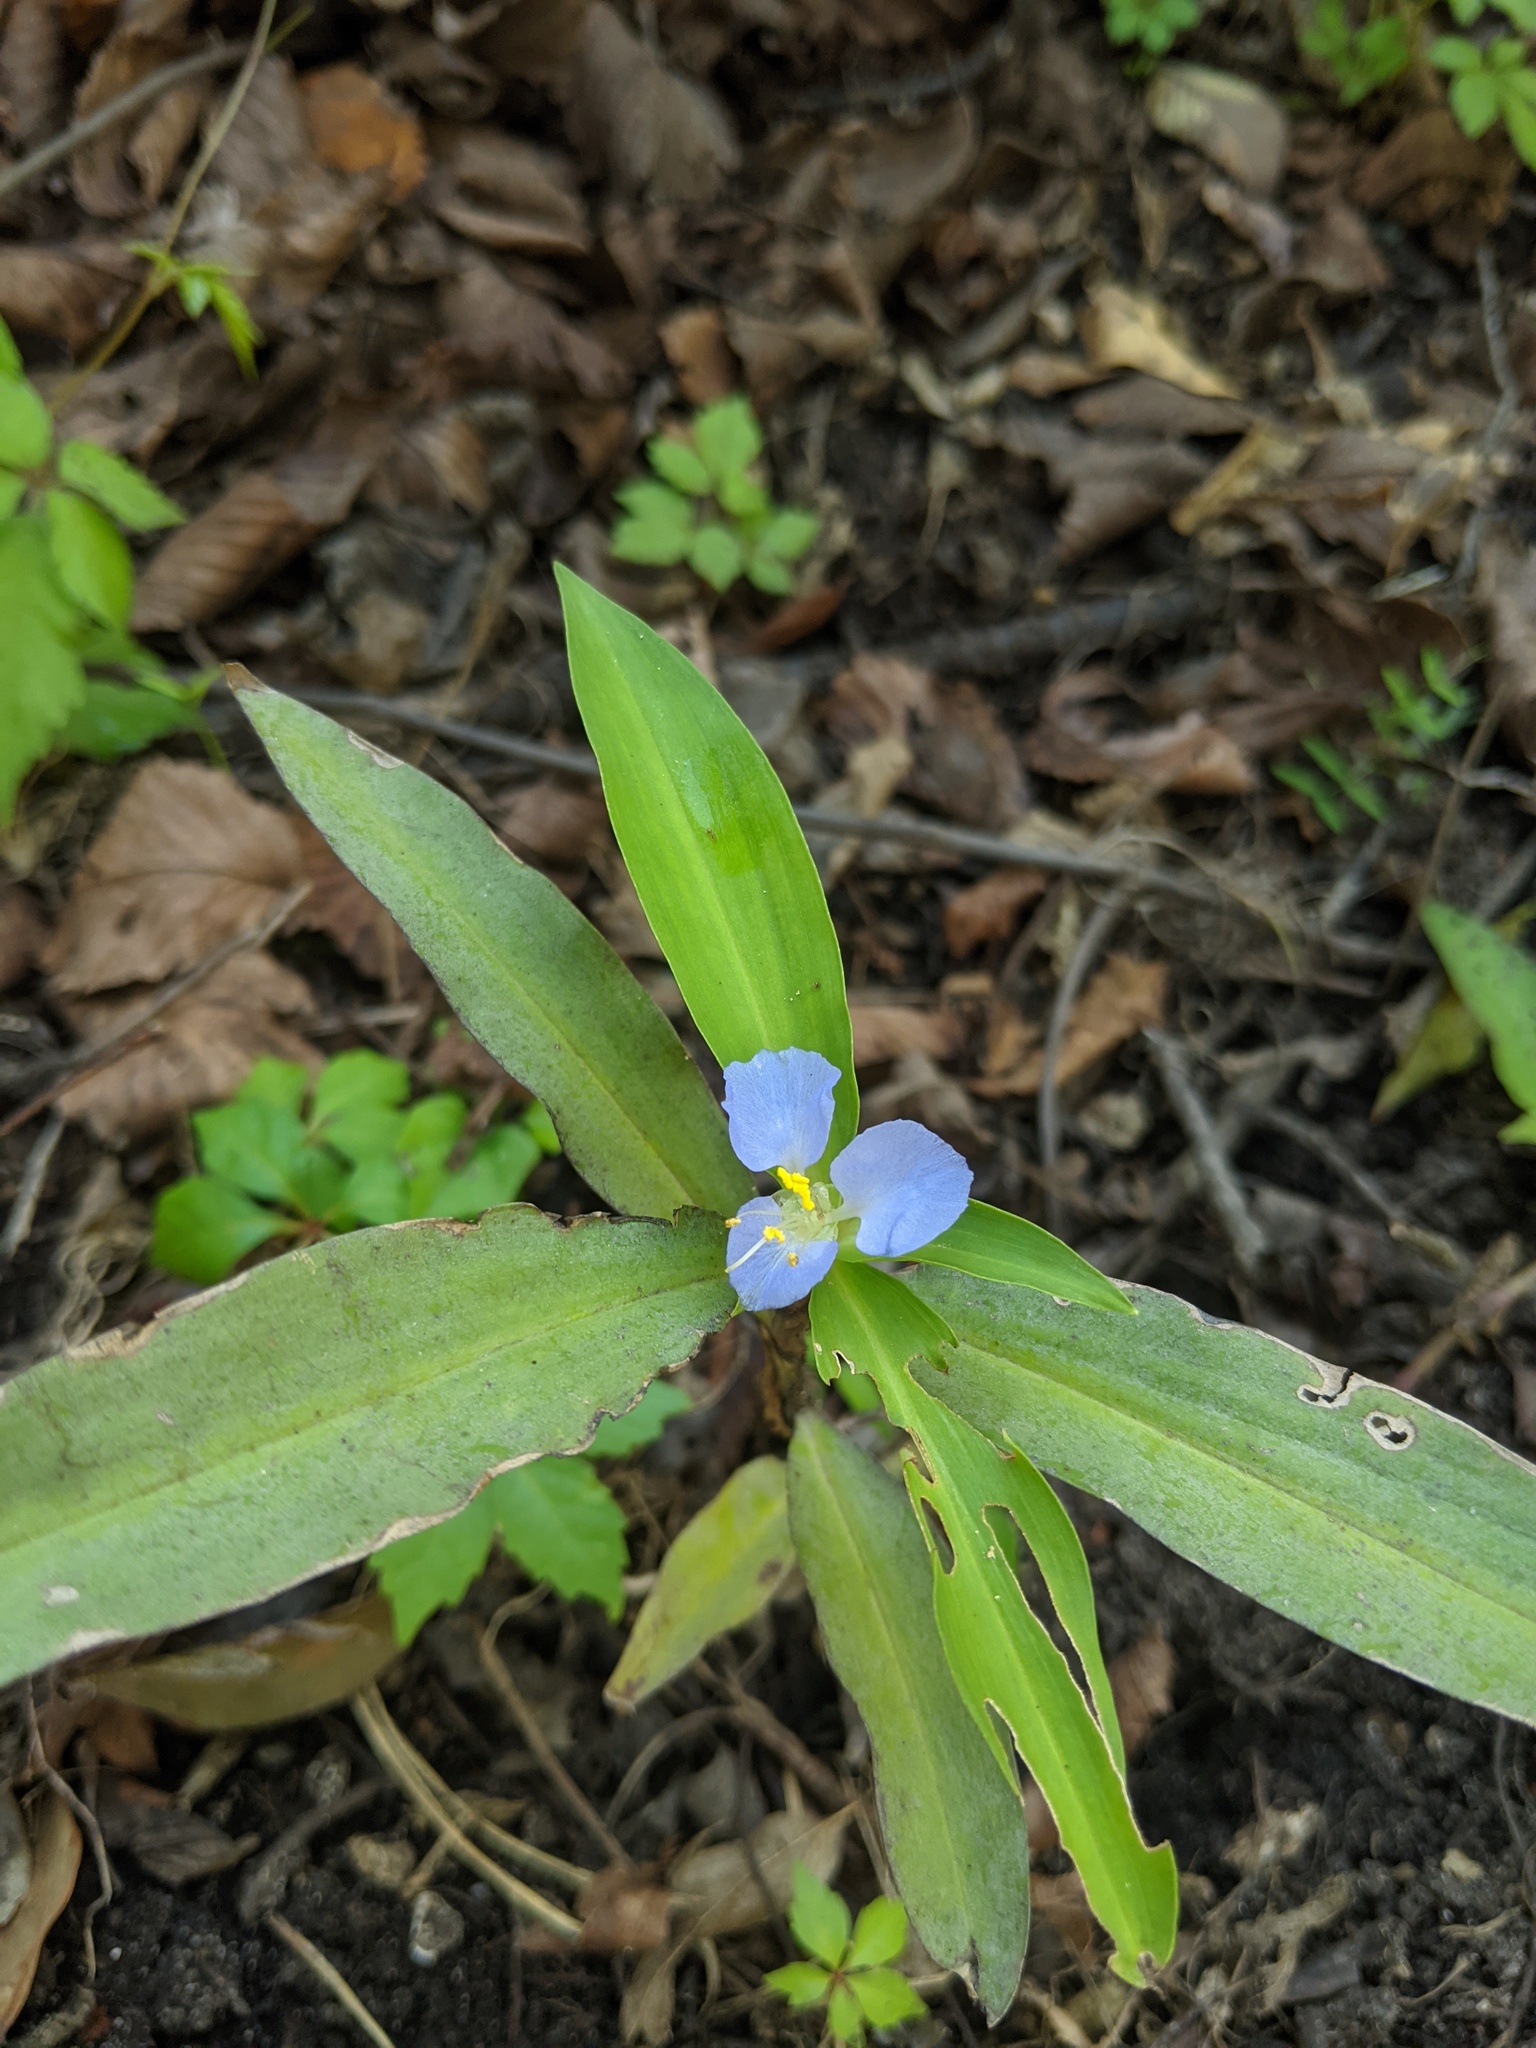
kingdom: Plantae
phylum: Tracheophyta
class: Liliopsida
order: Commelinales
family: Commelinaceae
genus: Commelina
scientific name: Commelina virginica
